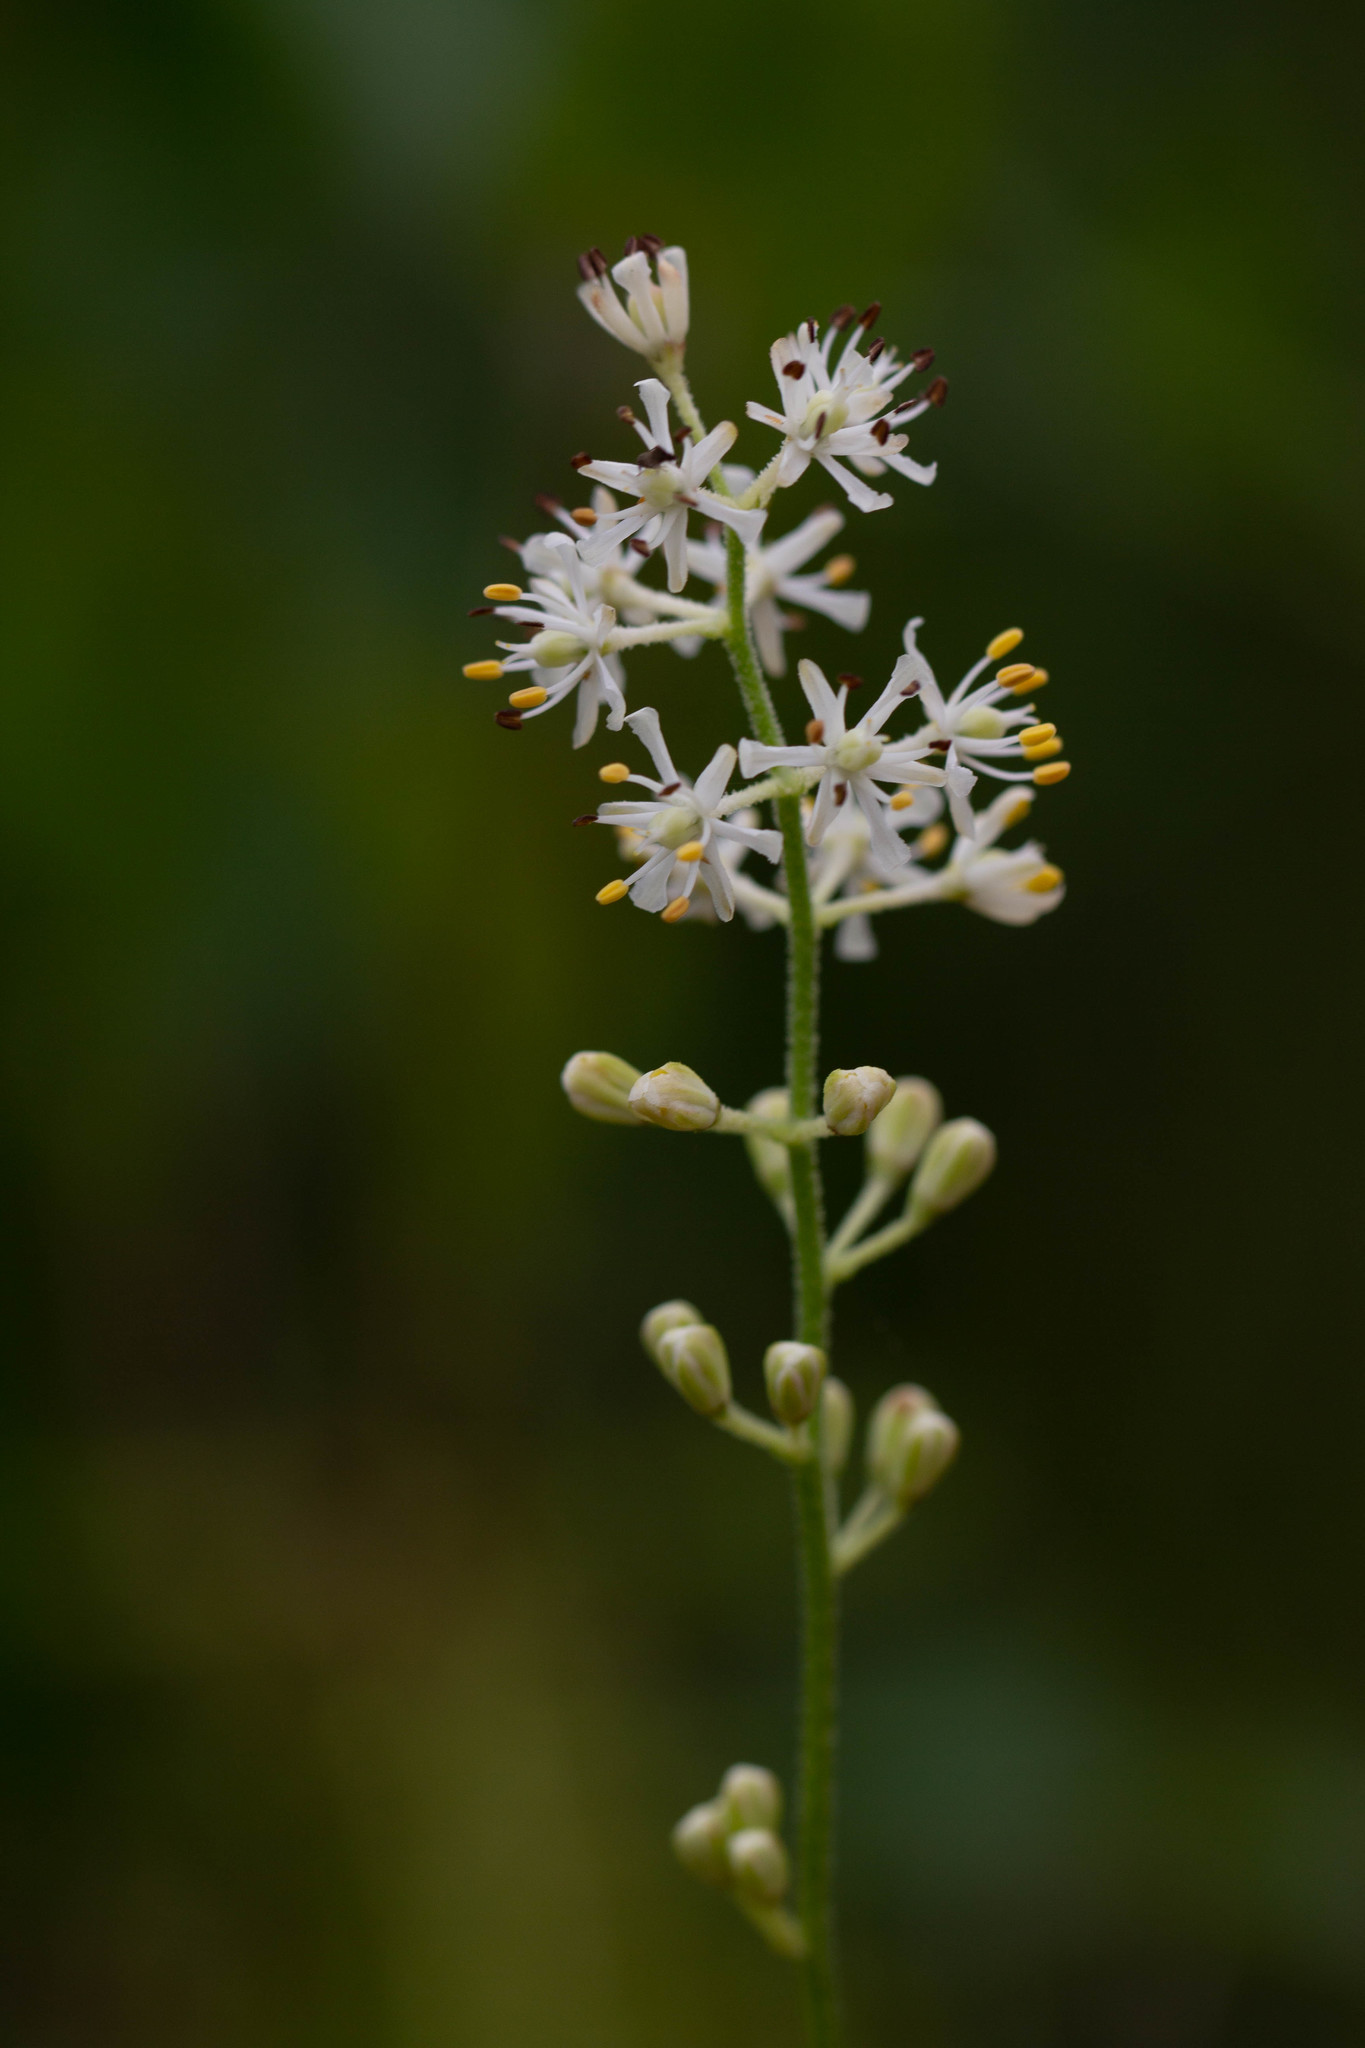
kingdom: Plantae
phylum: Tracheophyta
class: Liliopsida
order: Alismatales
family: Tofieldiaceae
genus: Triantha
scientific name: Triantha racemosa
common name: Coastal false asphodel
